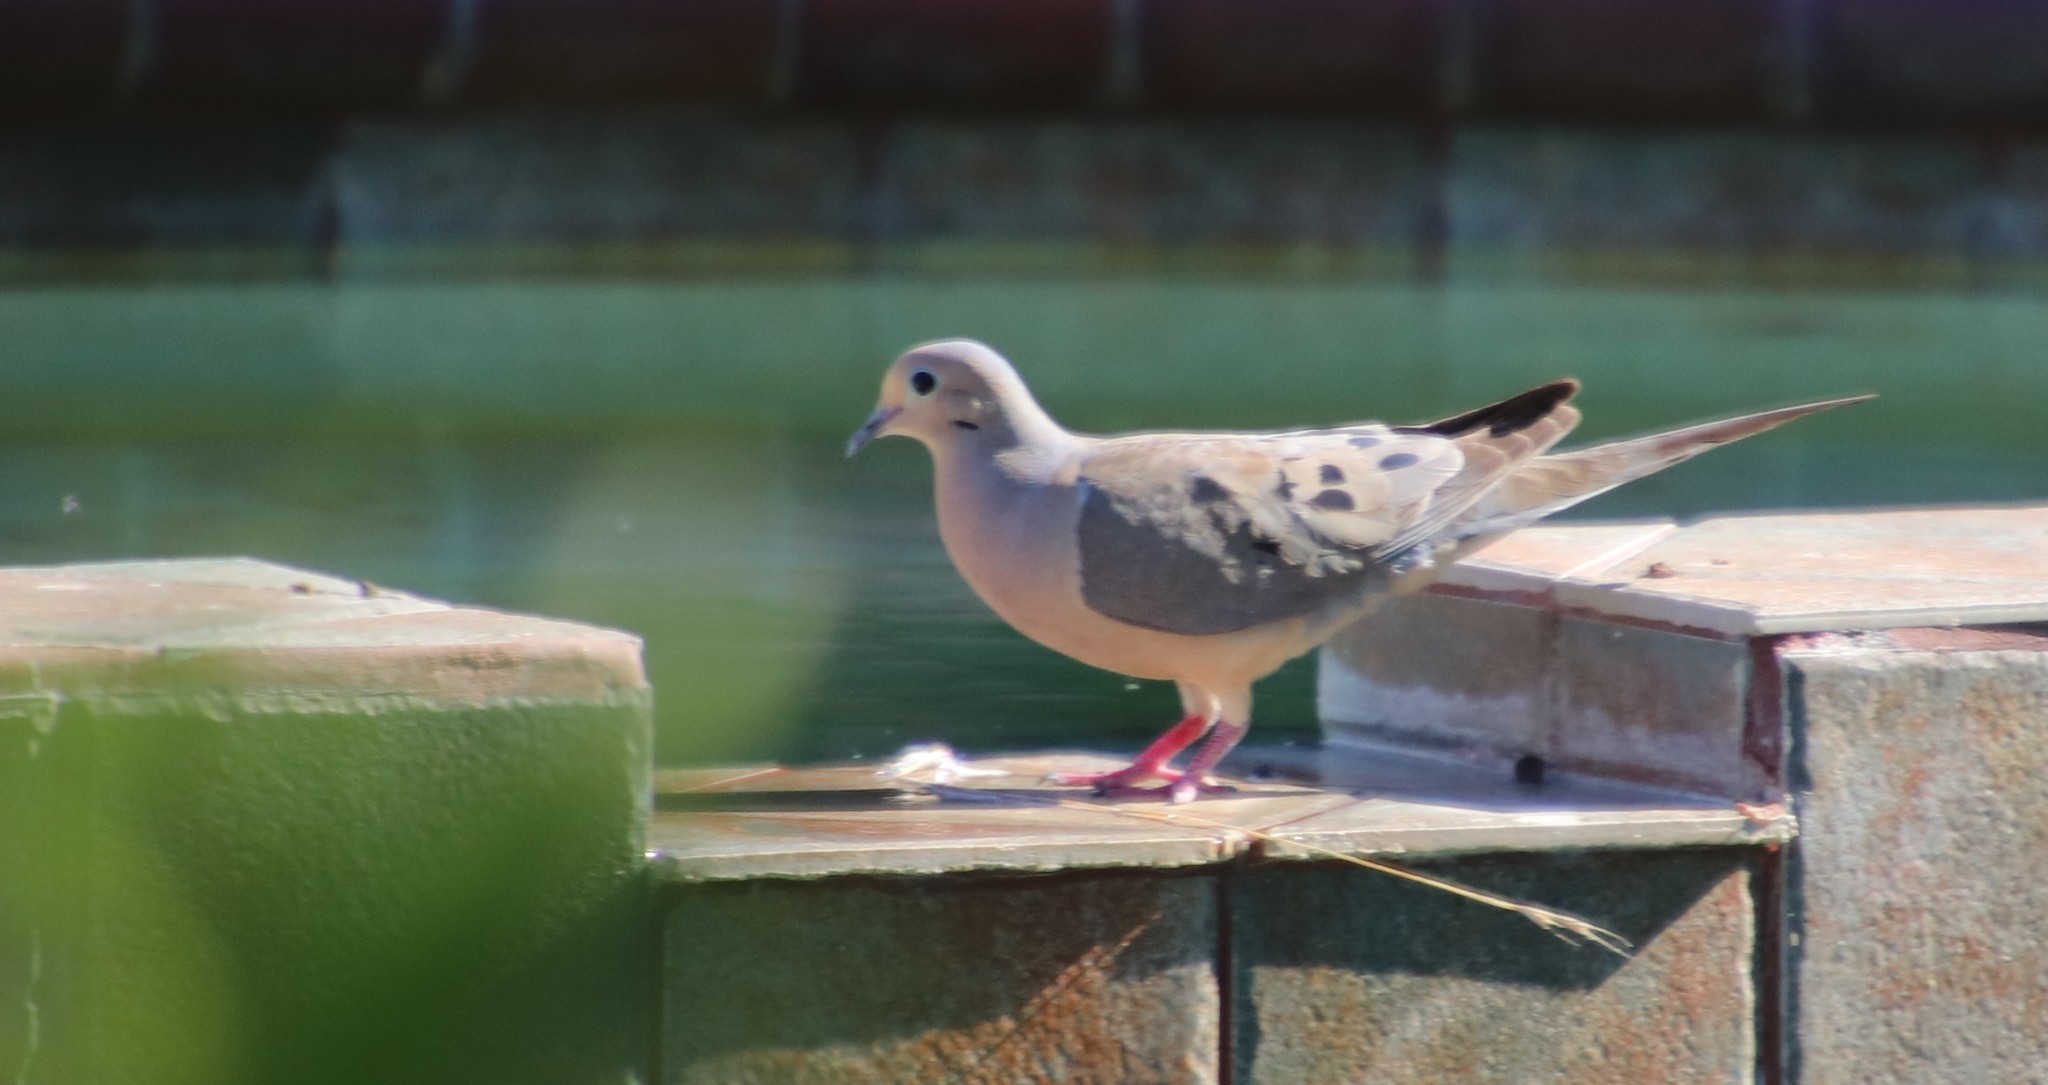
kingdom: Animalia
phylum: Chordata
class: Aves
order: Columbiformes
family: Columbidae
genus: Zenaida
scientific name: Zenaida macroura
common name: Mourning dove
